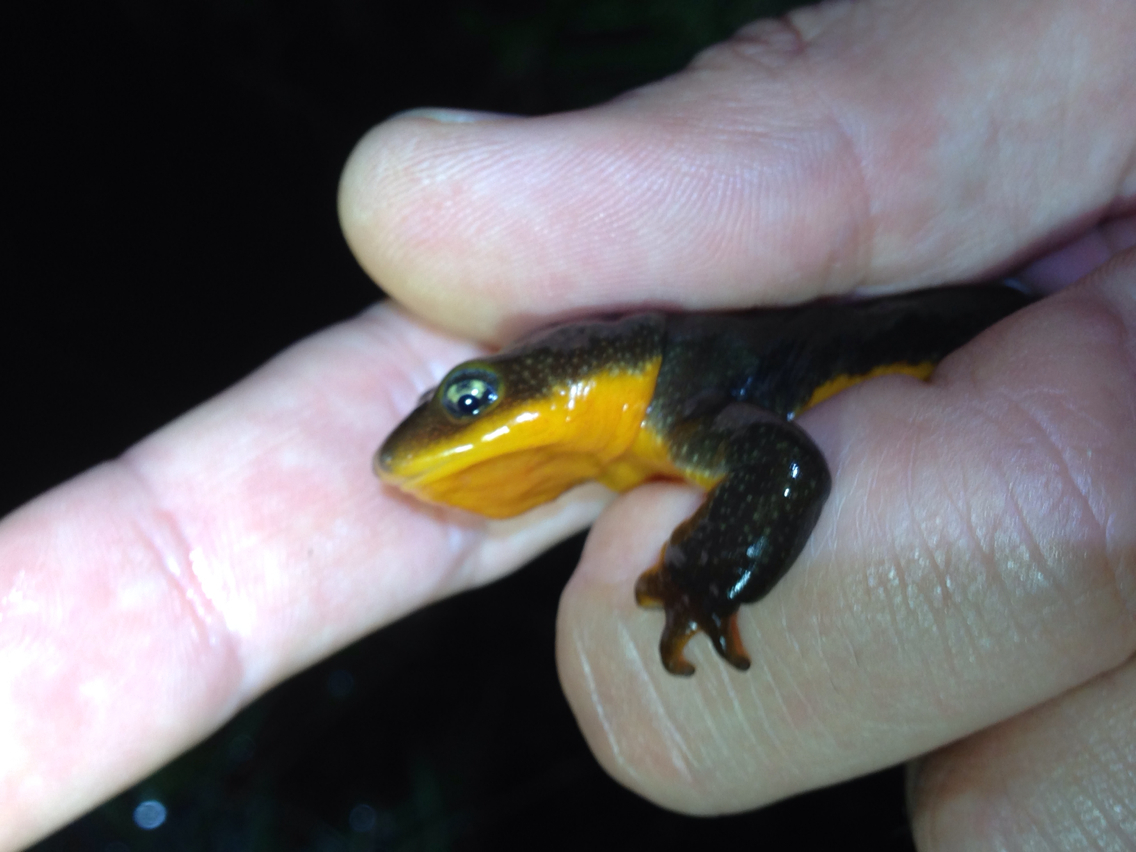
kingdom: Animalia
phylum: Chordata
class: Amphibia
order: Caudata
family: Salamandridae
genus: Taricha
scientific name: Taricha granulosa
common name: Roughskin newt
